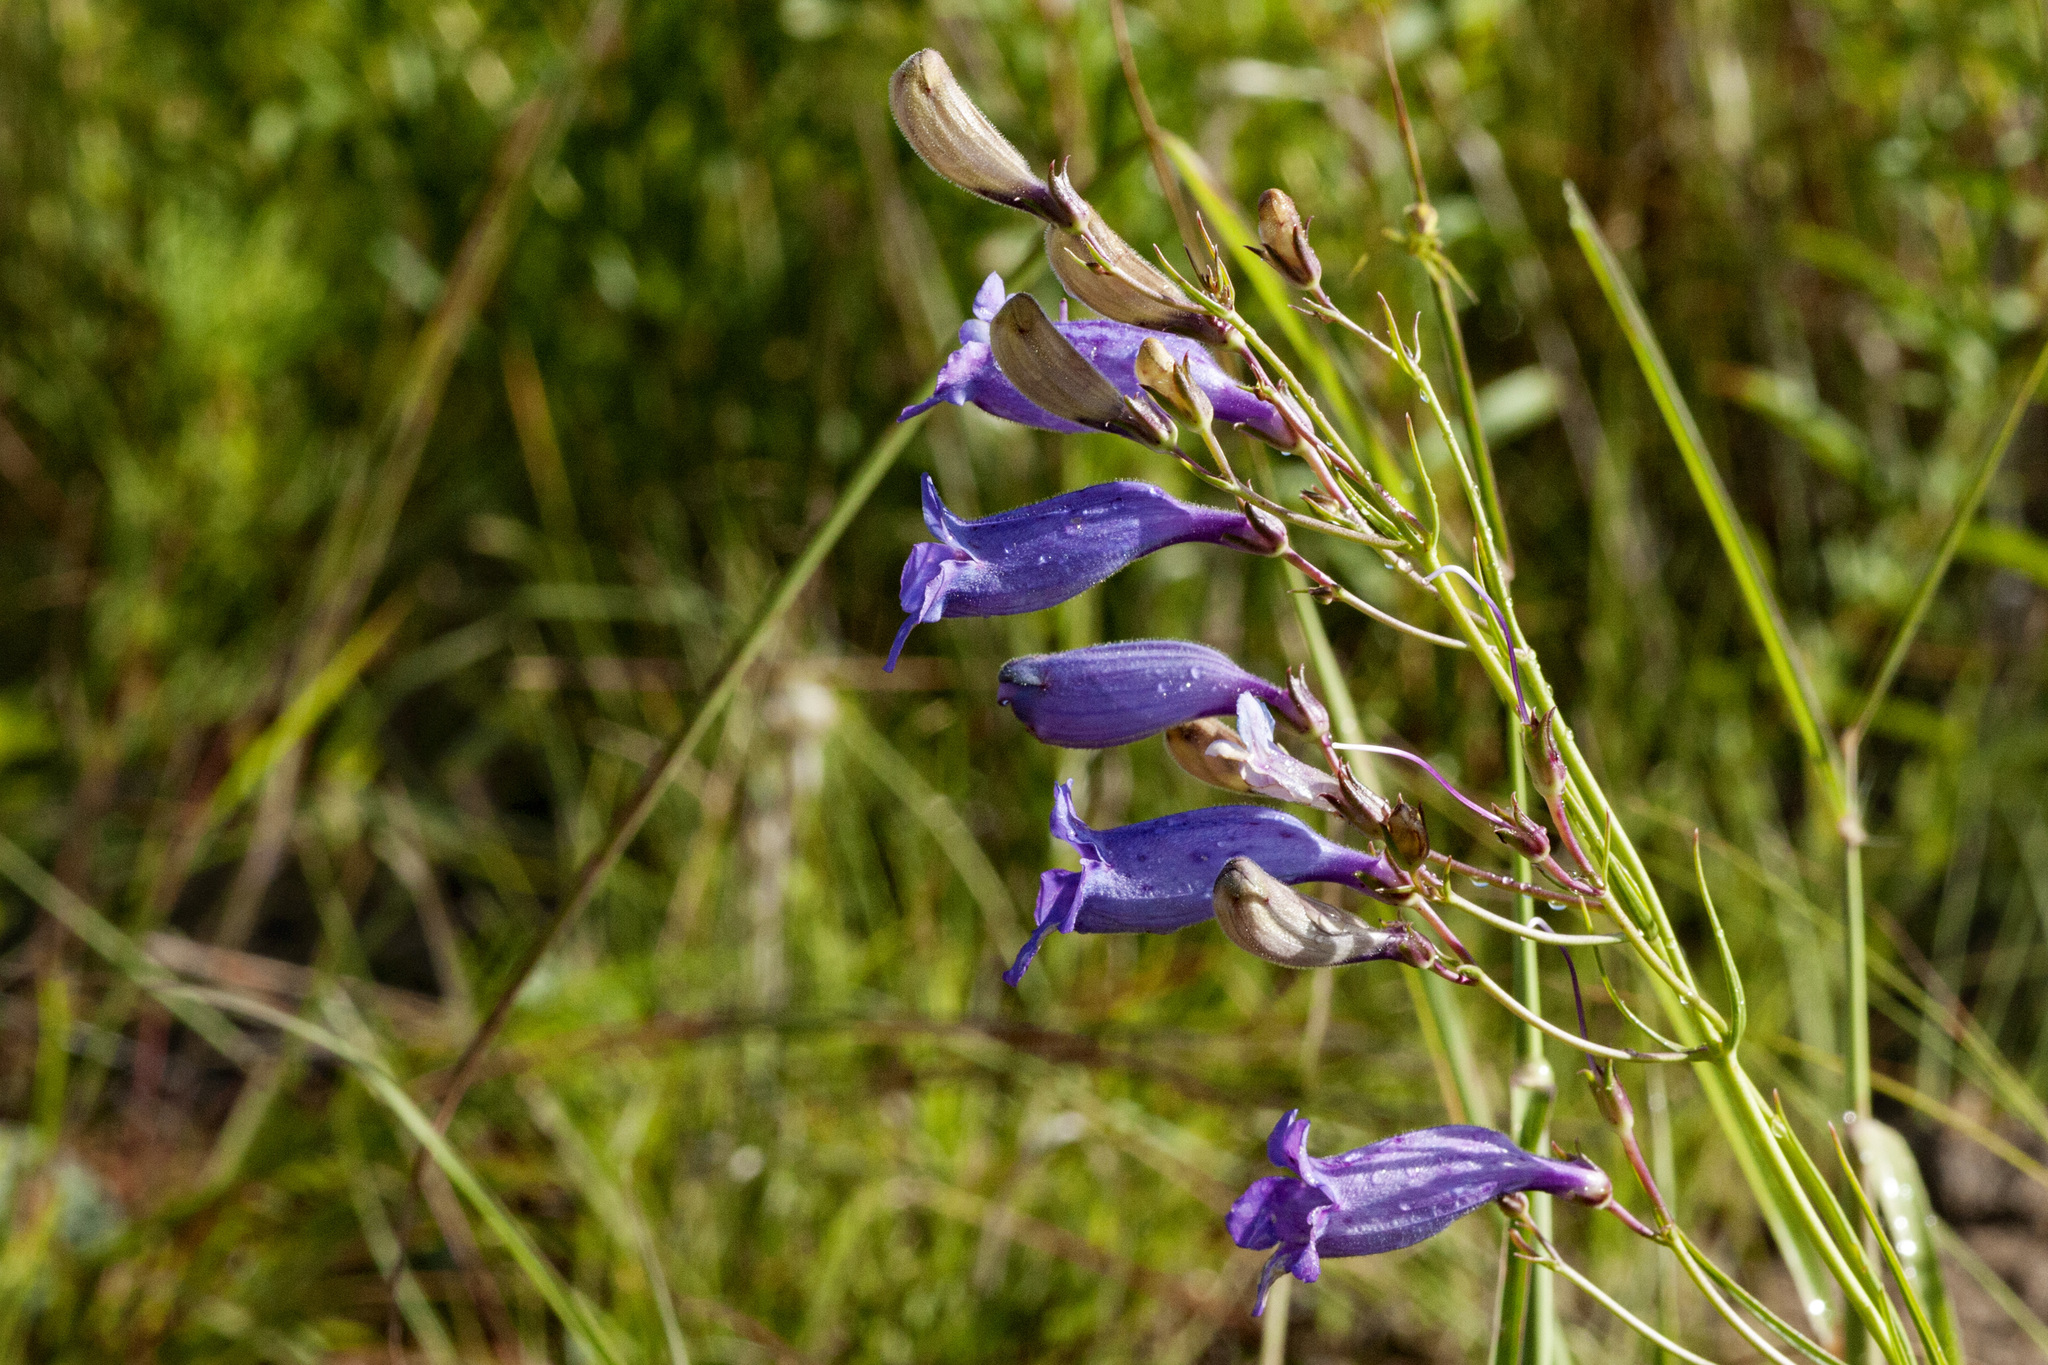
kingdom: Plantae
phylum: Tracheophyta
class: Magnoliopsida
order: Lamiales
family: Plantaginaceae
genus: Penstemon
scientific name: Penstemon stenophyllus
